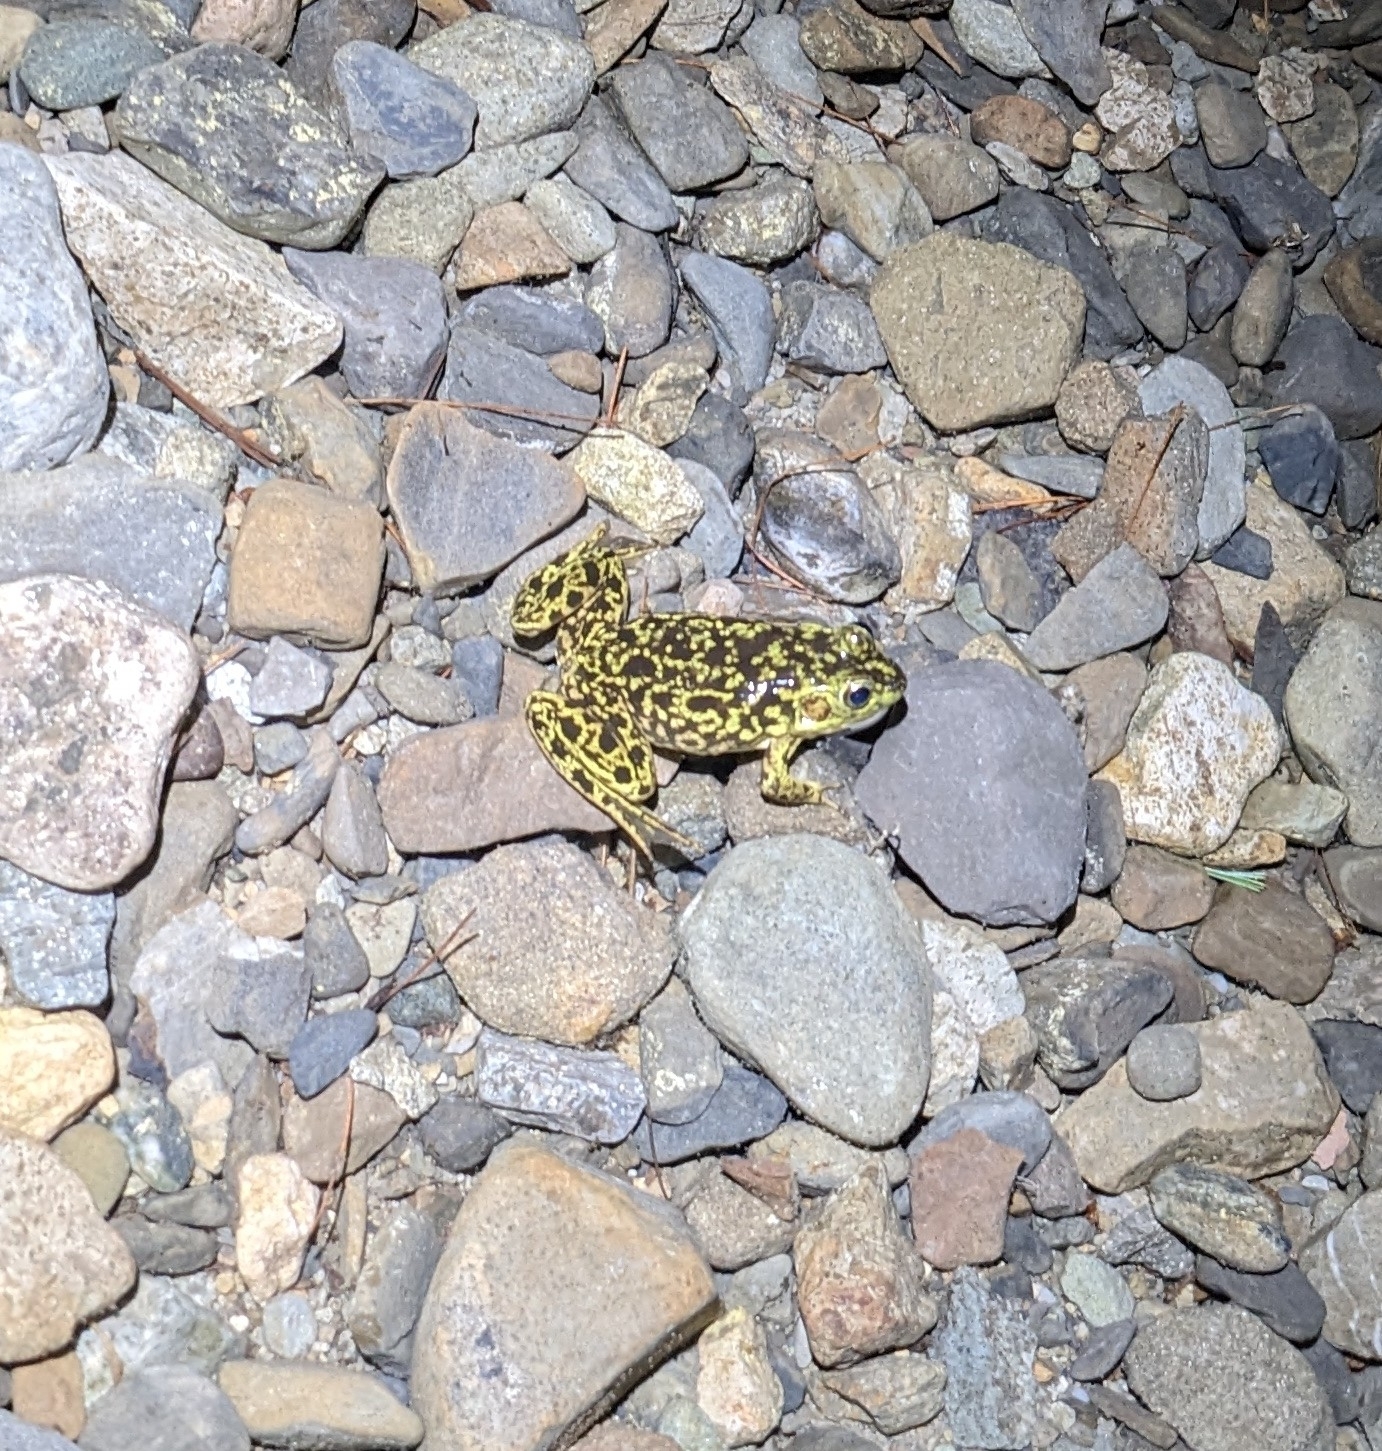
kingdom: Animalia
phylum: Chordata
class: Amphibia
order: Anura
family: Ranidae
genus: Lithobates
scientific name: Lithobates septentrionalis
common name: Mink frog
